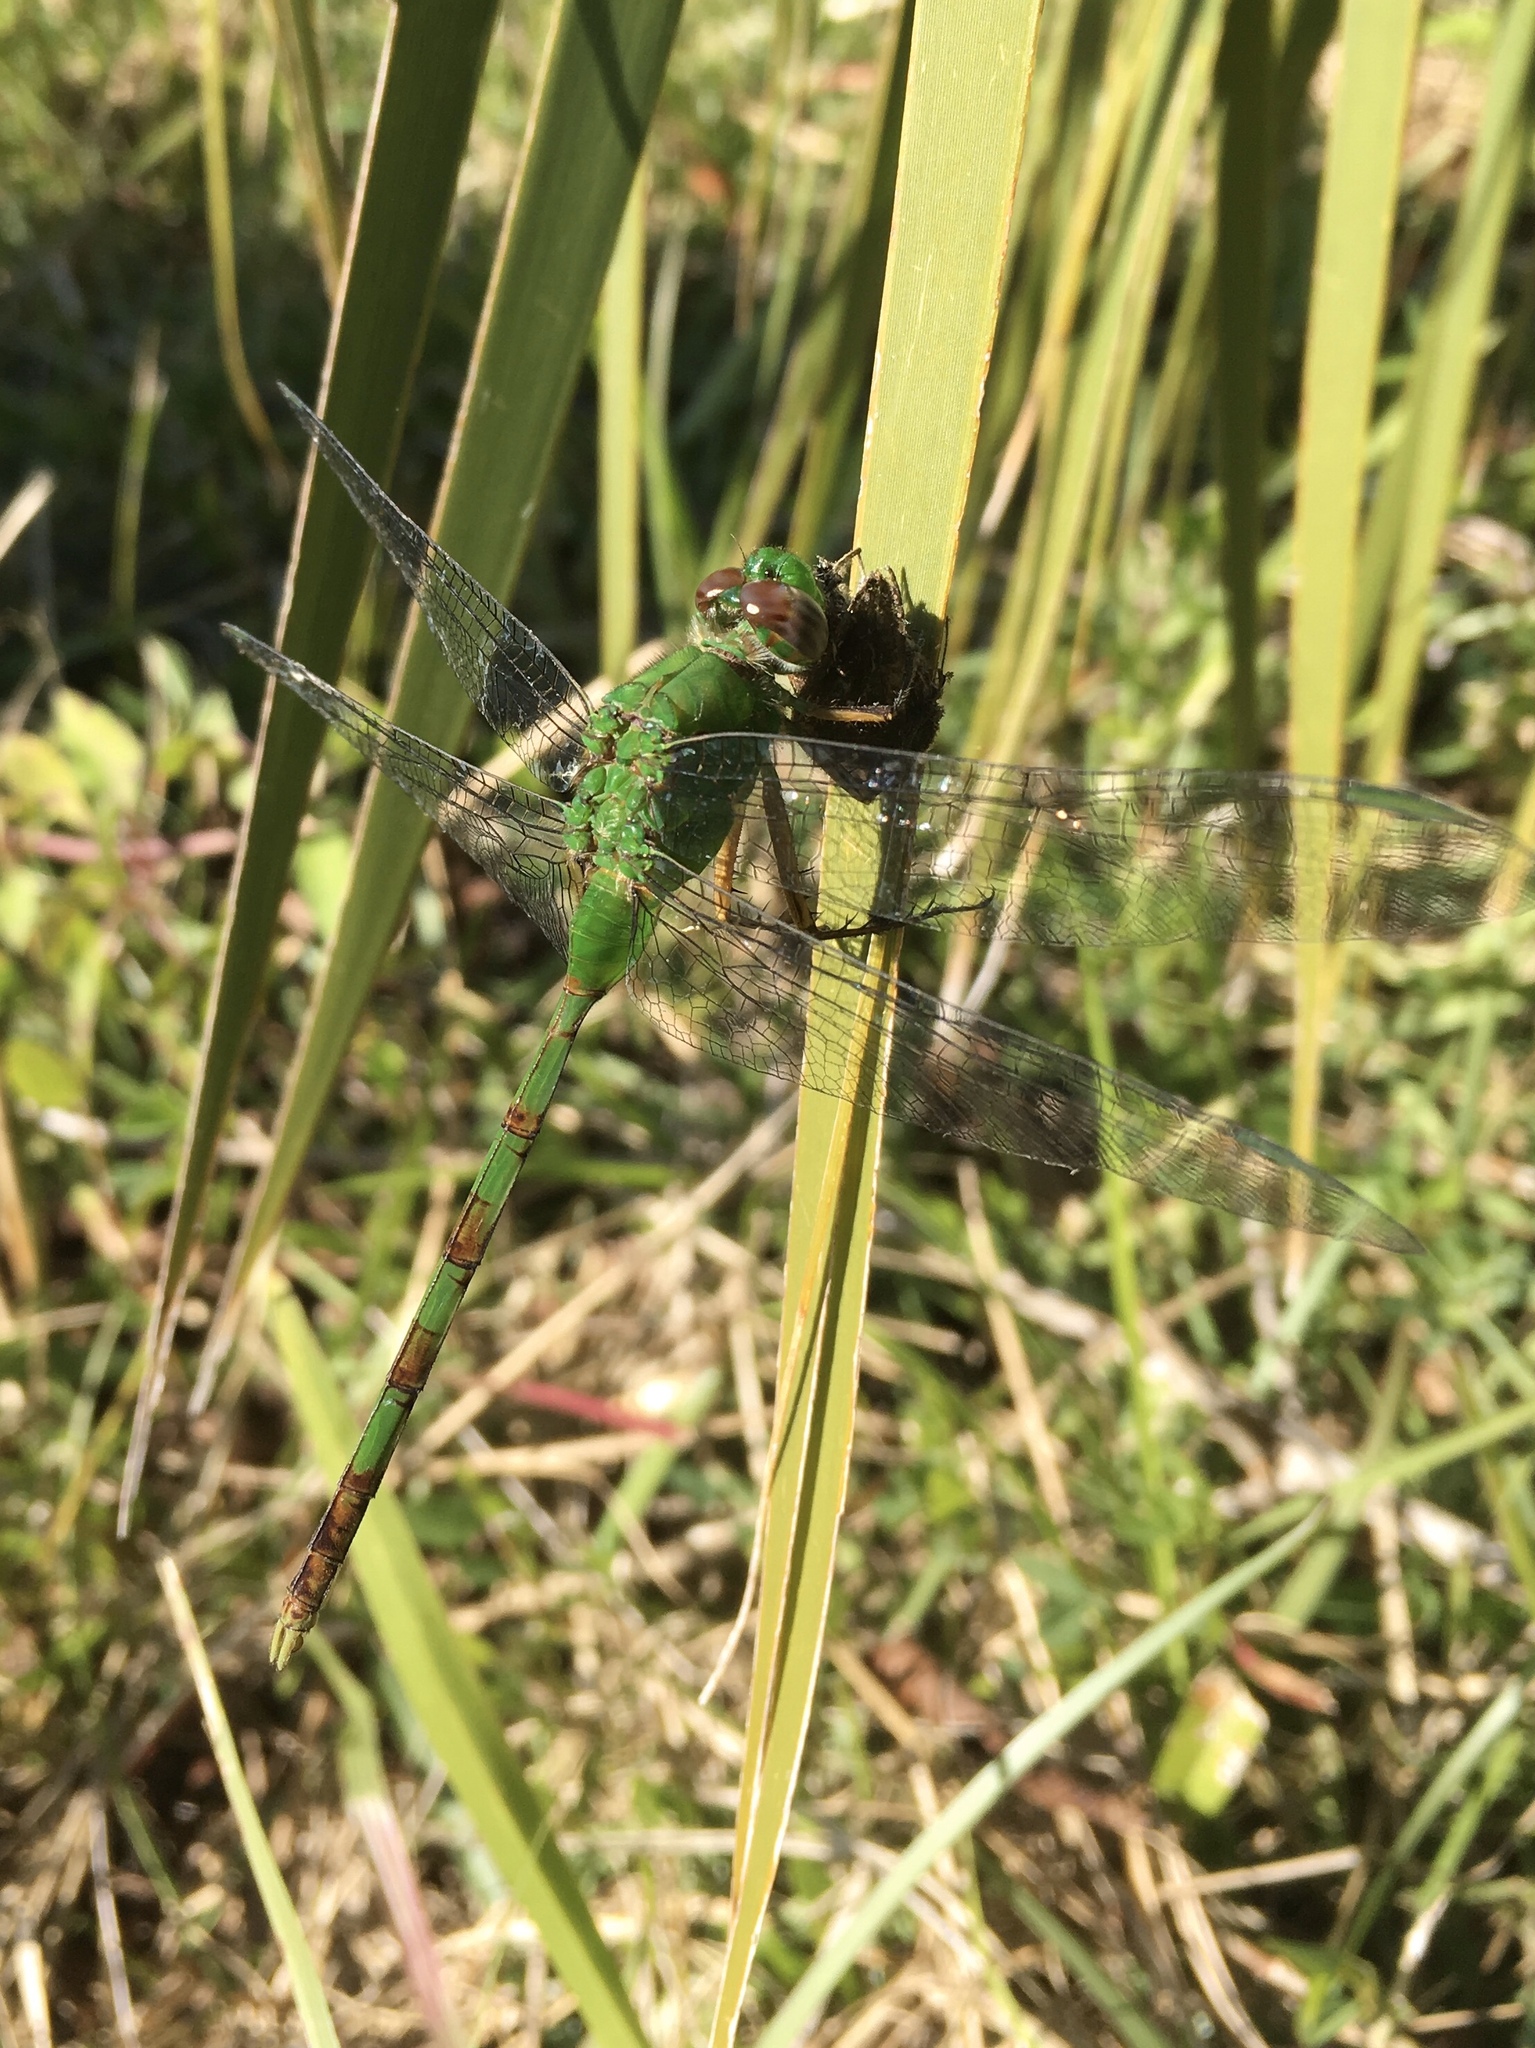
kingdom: Animalia
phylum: Arthropoda
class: Insecta
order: Odonata
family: Libellulidae
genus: Erythemis
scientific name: Erythemis vesiculosa
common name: Great pondhawk
